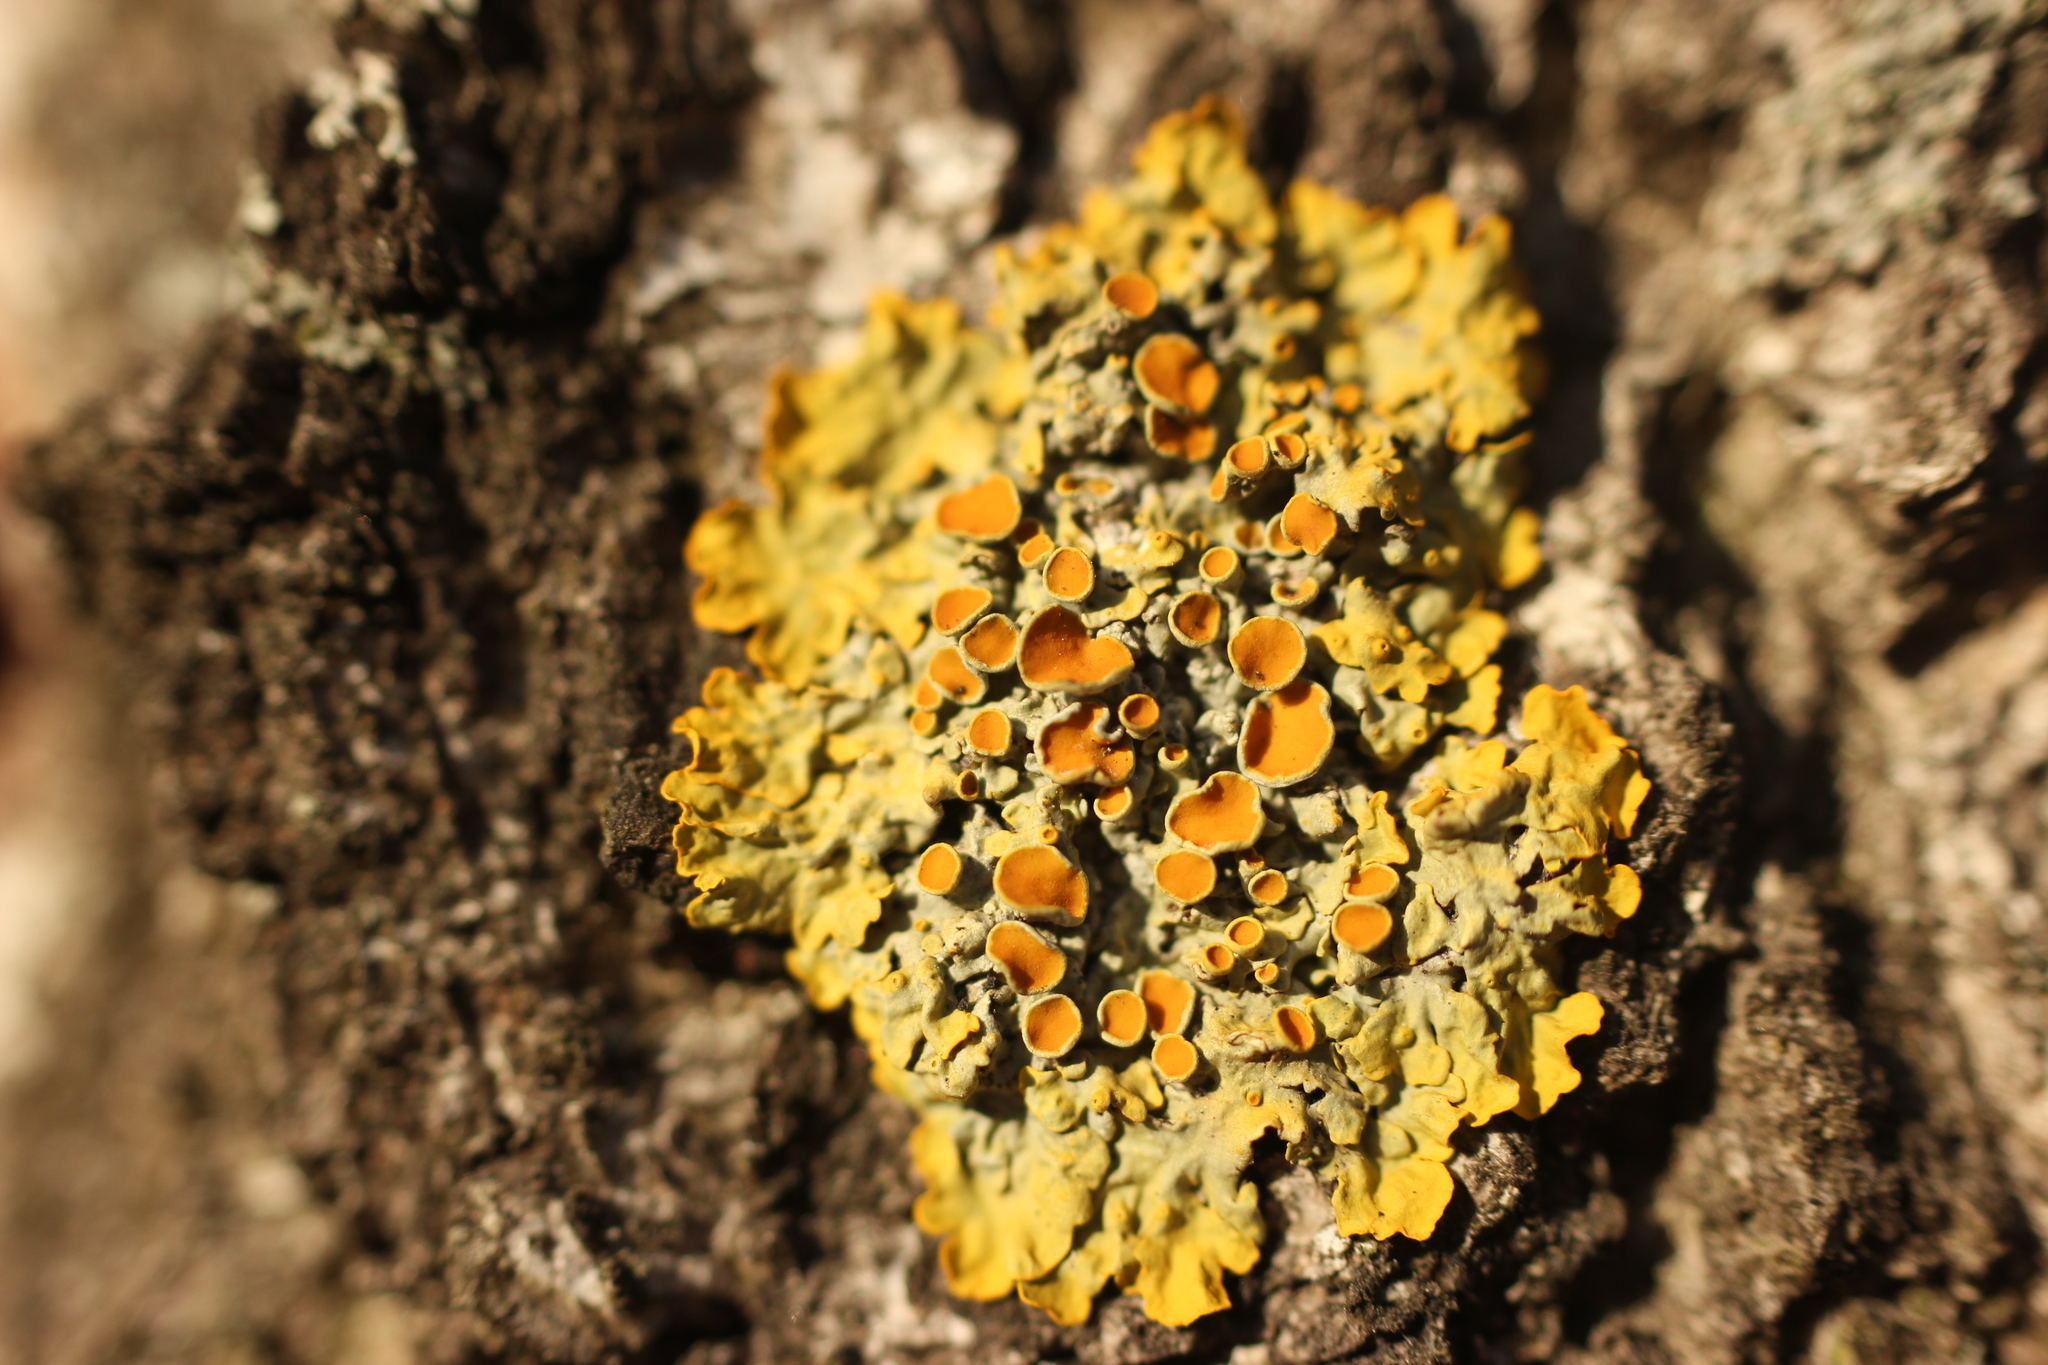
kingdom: Fungi
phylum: Ascomycota
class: Lecanoromycetes
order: Teloschistales
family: Teloschistaceae
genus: Xanthoria
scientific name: Xanthoria parietina
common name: Common orange lichen
